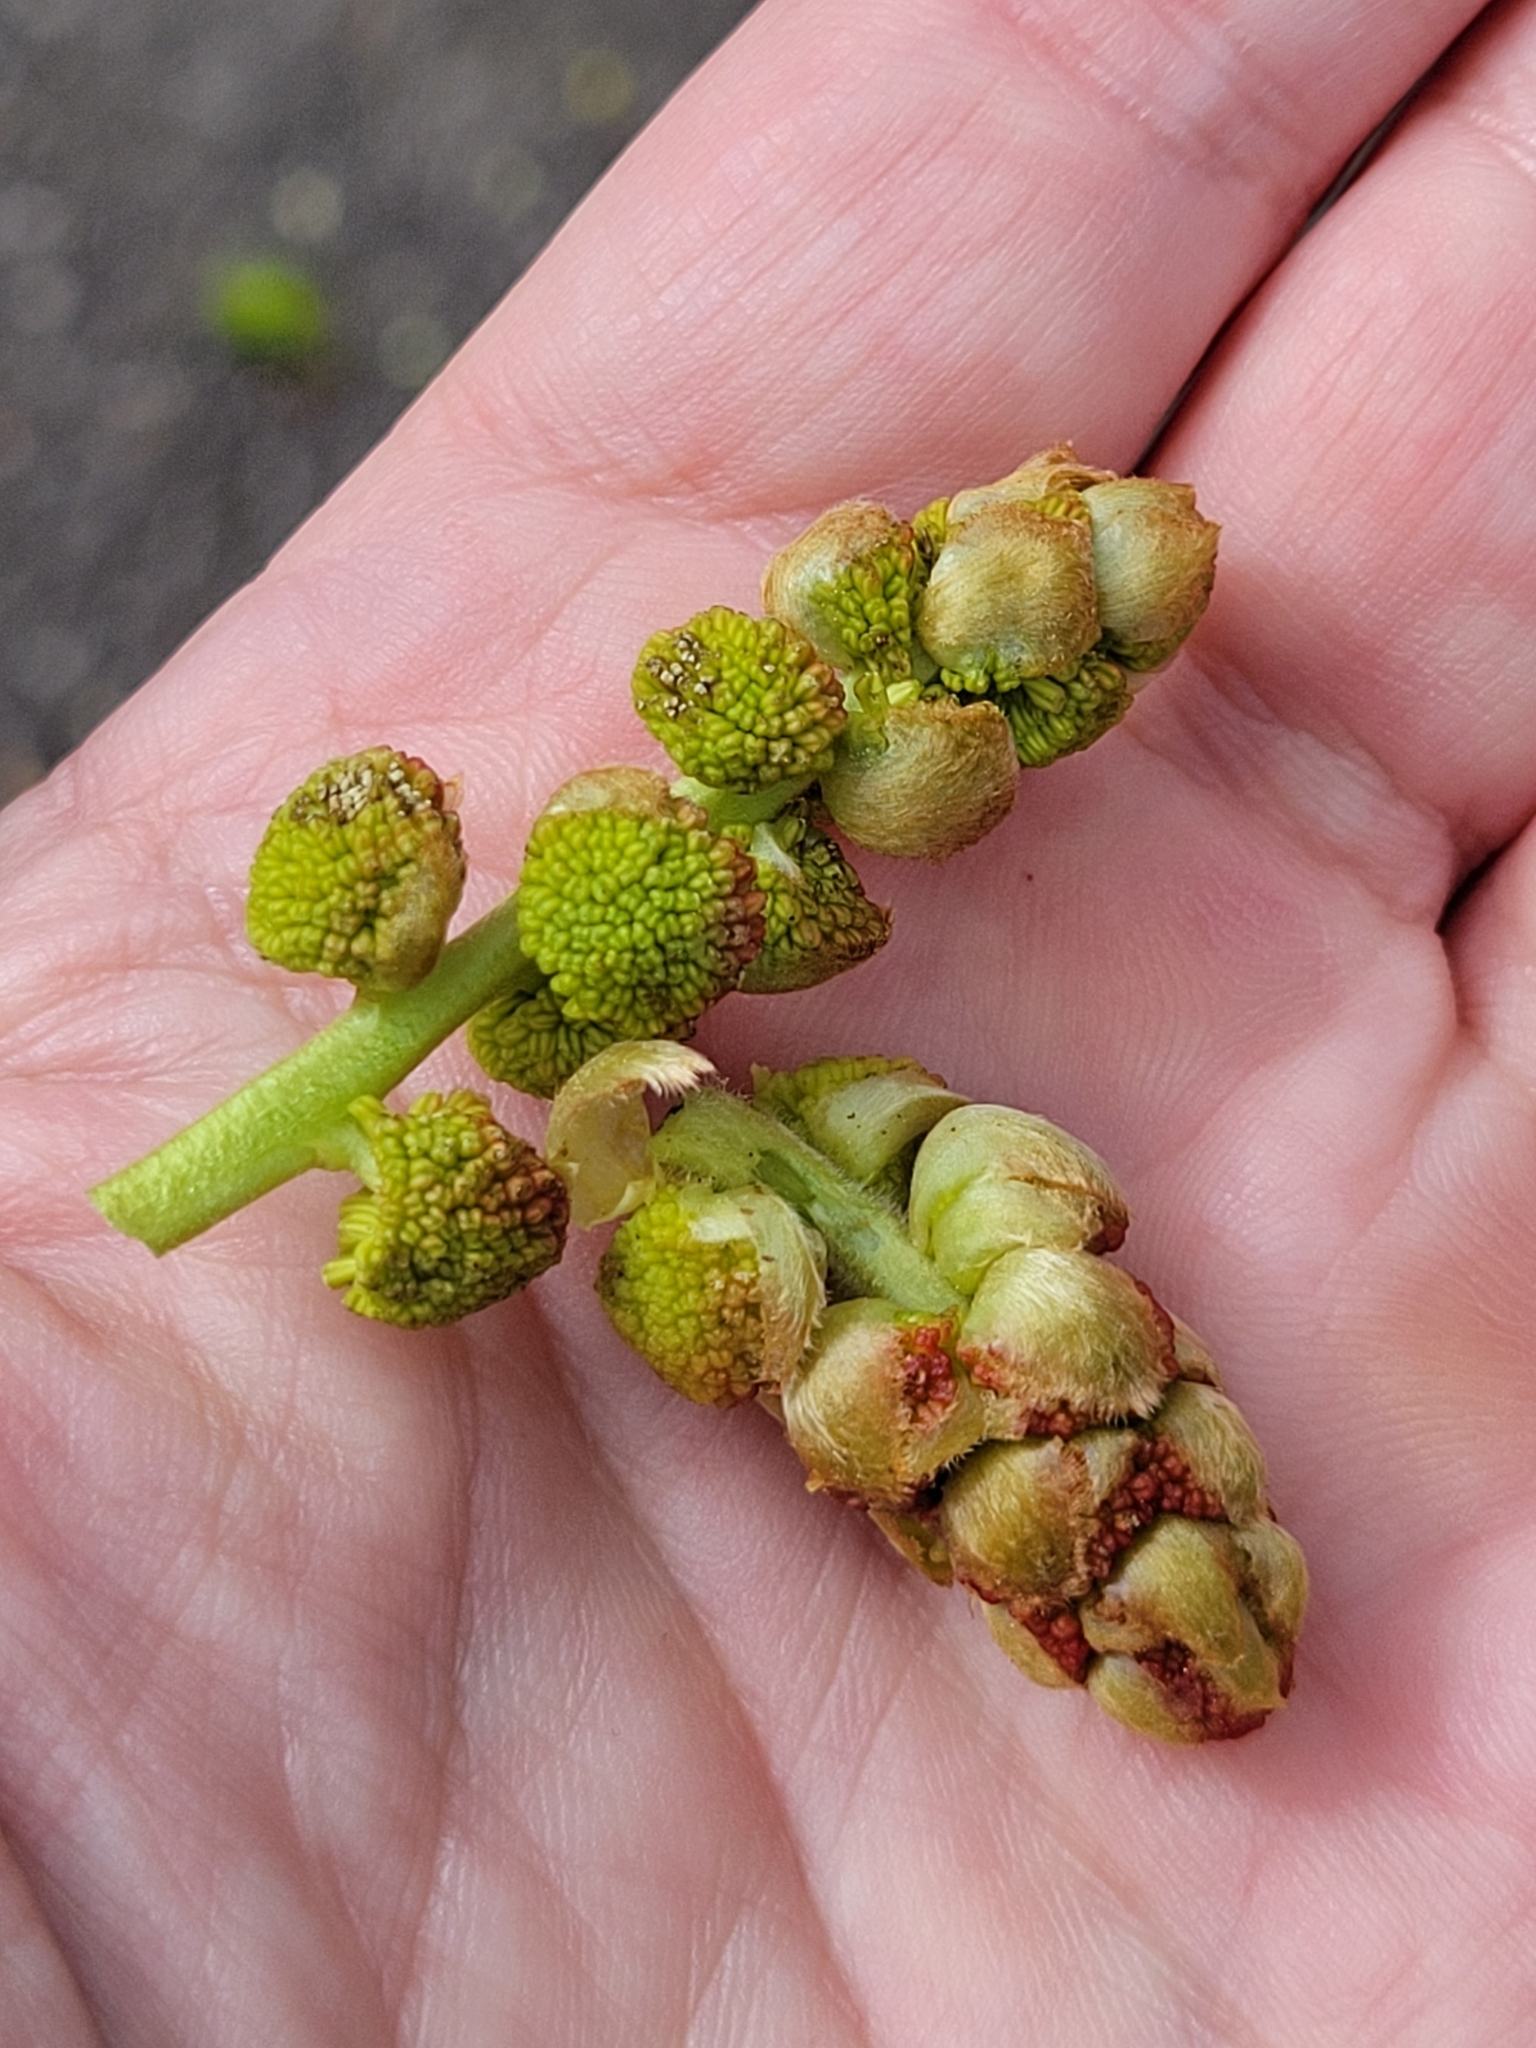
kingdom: Plantae
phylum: Tracheophyta
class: Magnoliopsida
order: Saxifragales
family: Altingiaceae
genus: Liquidambar
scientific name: Liquidambar styraciflua
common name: Sweet gum
